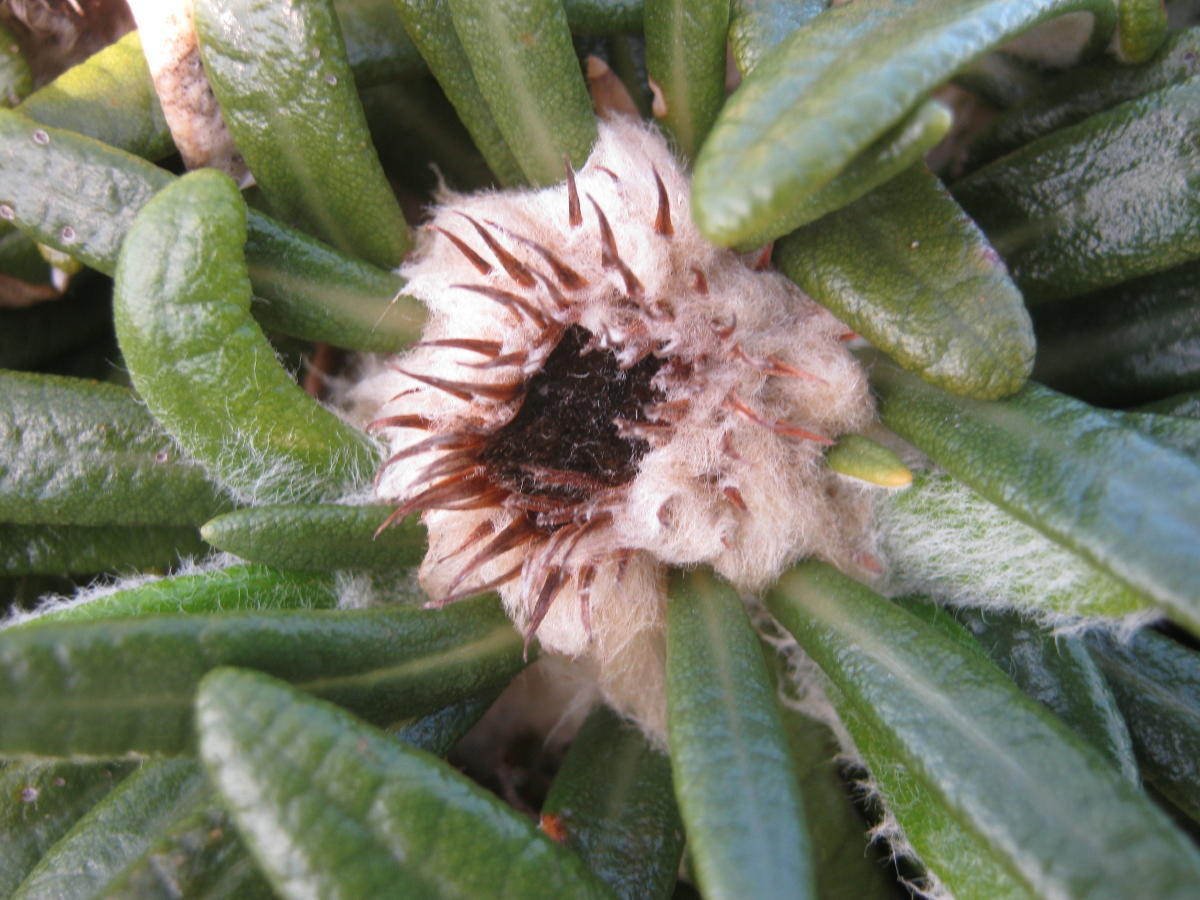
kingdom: Plantae
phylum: Tracheophyta
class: Magnoliopsida
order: Asterales
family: Asteraceae
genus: Oldenburgia
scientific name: Oldenburgia paradoxa
